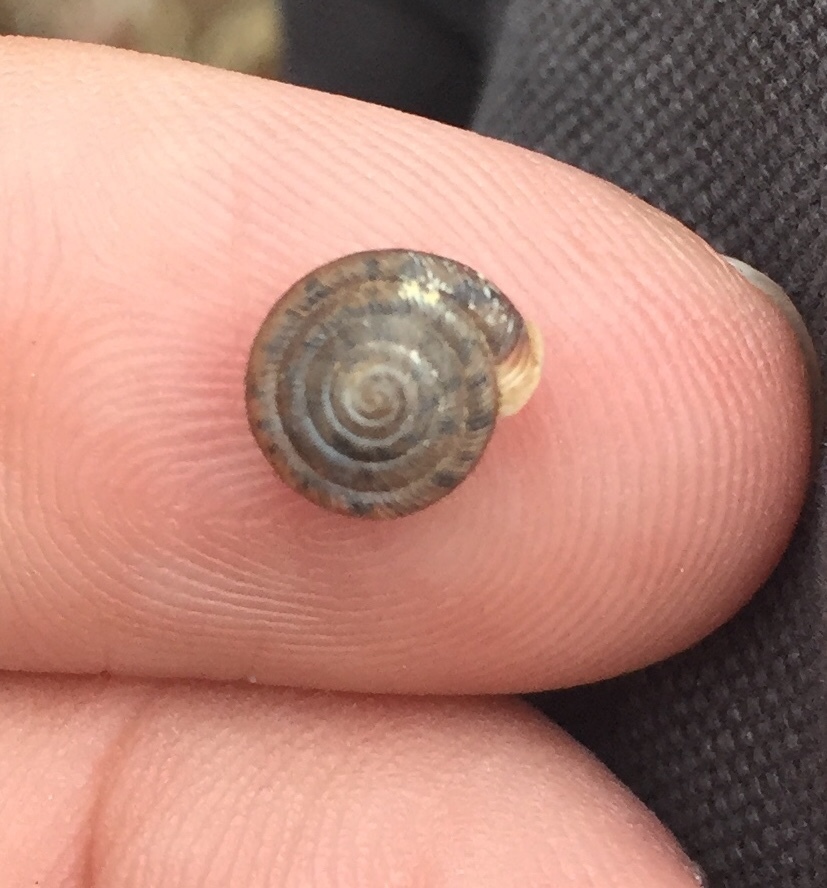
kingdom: Animalia
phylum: Mollusca
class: Gastropoda
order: Stylommatophora
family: Polygyridae
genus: Polygyra
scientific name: Polygyra cereolus
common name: Southern flatcone snail
